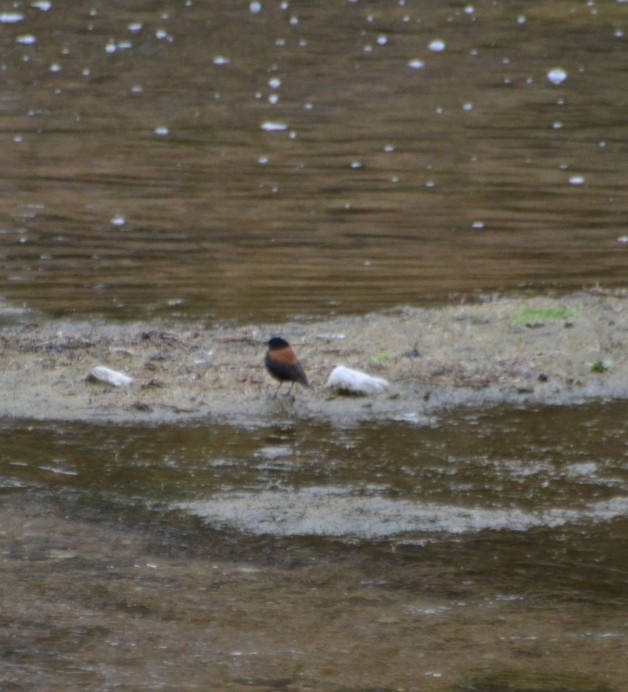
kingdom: Animalia
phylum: Chordata
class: Aves
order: Passeriformes
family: Tyrannidae
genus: Lessonia
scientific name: Lessonia rufa
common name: Austral negrito
